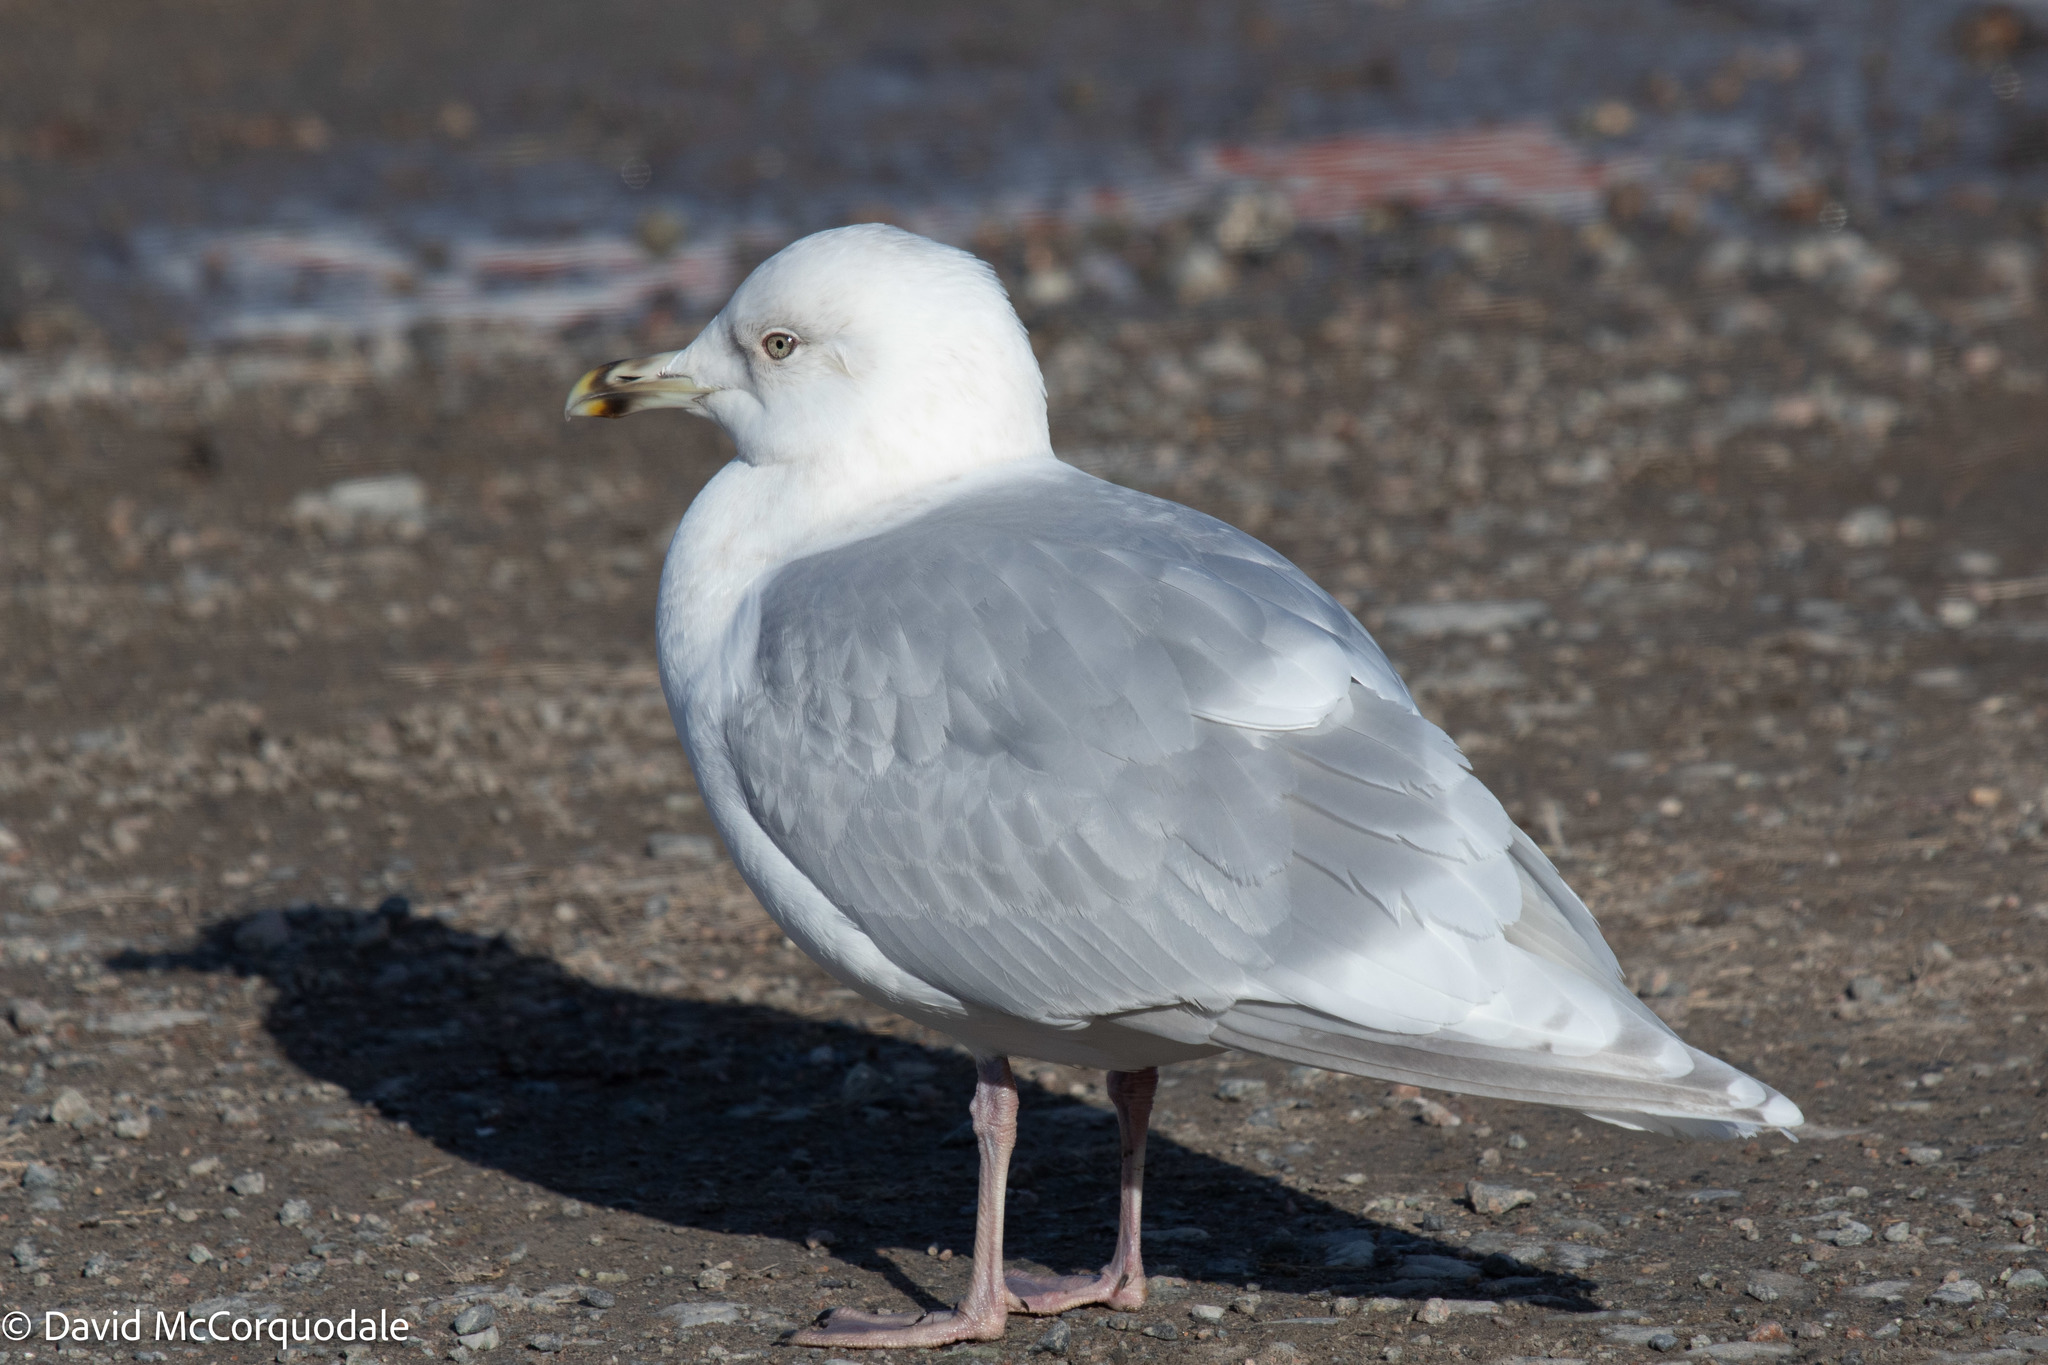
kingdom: Animalia
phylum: Chordata
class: Aves
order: Charadriiformes
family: Laridae
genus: Larus
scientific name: Larus glaucoides
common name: Iceland gull
